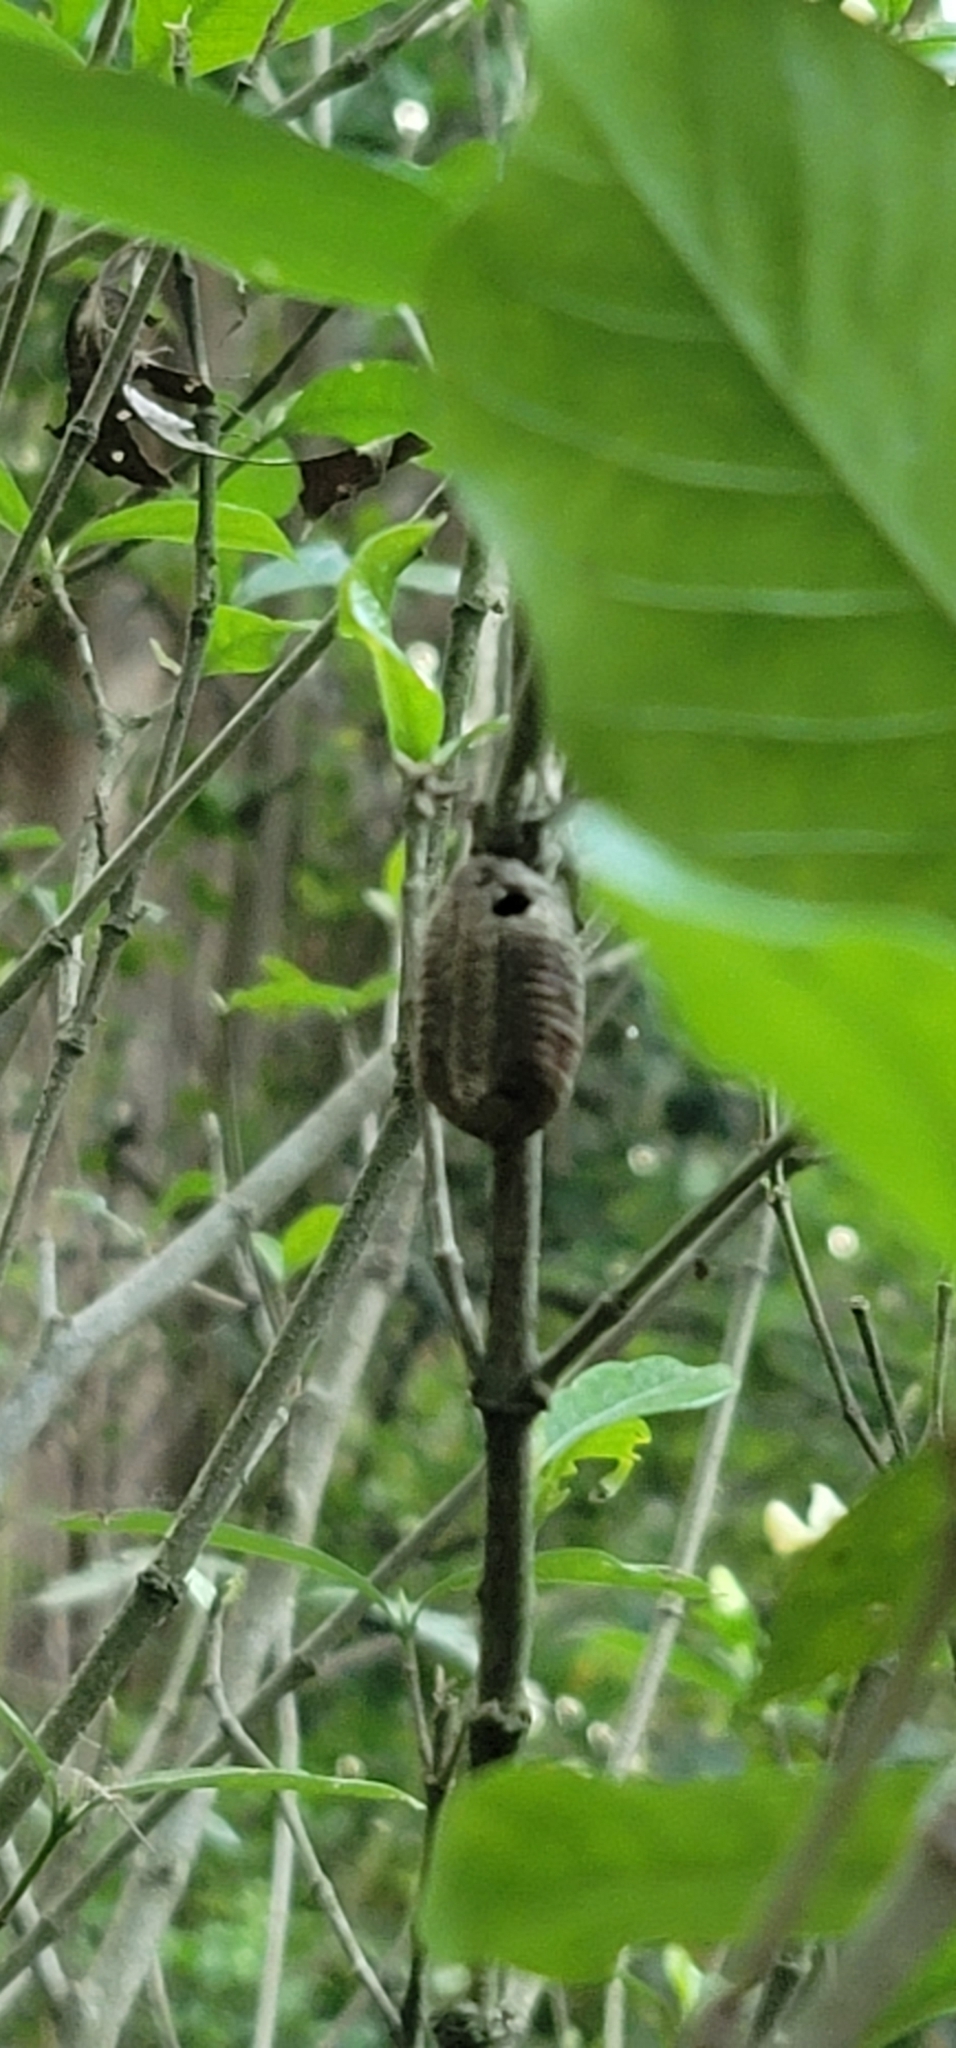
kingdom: Animalia
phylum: Arthropoda
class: Insecta
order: Mantodea
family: Mantidae
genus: Hierodula
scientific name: Hierodula patellifera
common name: Asian mantis
